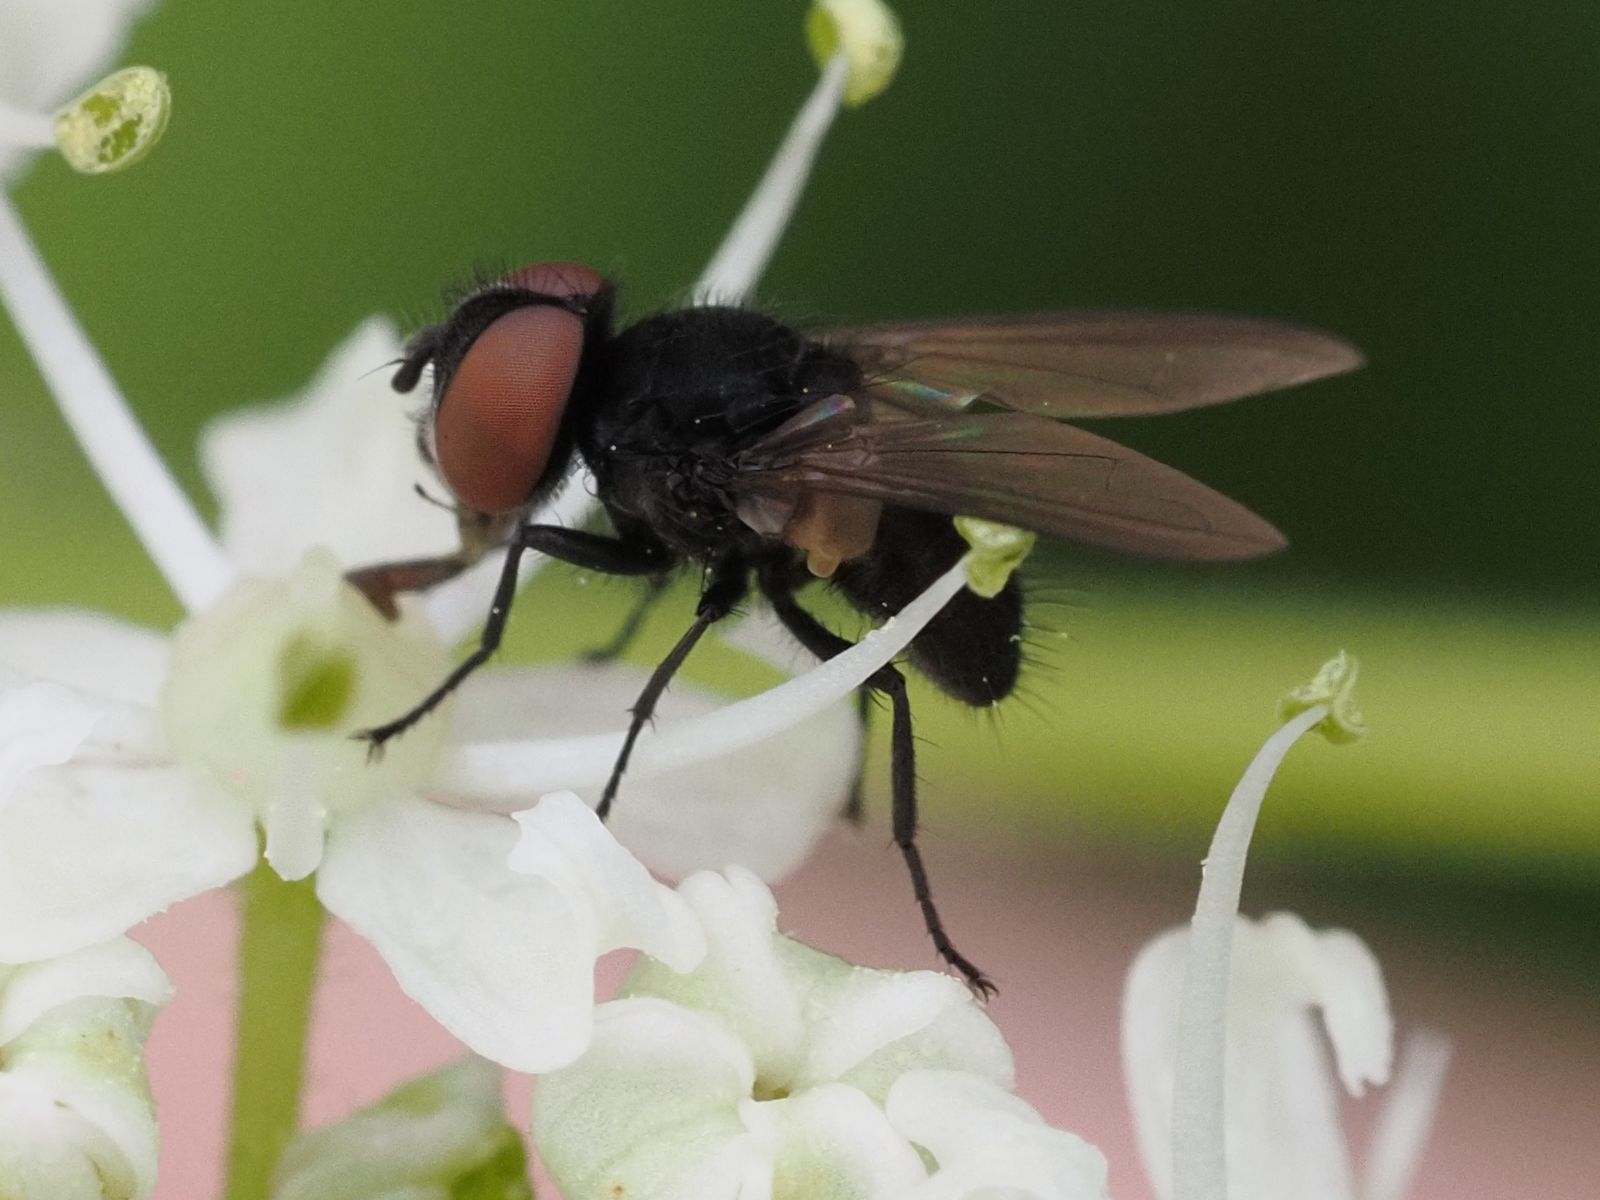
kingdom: Animalia
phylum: Arthropoda
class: Insecta
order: Diptera
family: Tachinidae
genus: Phasia
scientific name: Phasia barbifrons
